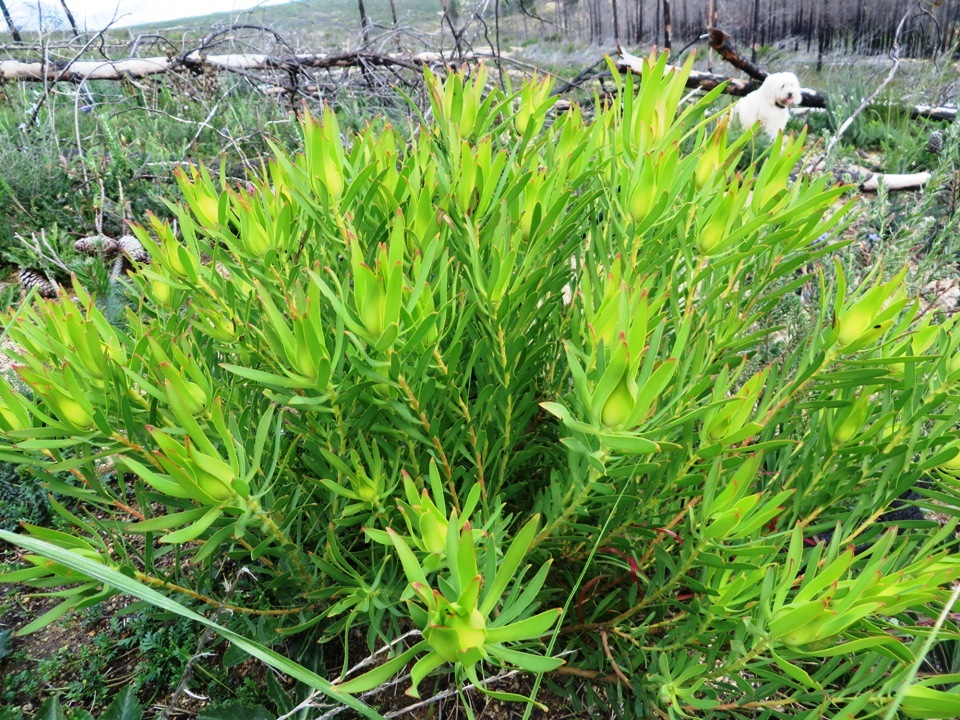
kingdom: Plantae
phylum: Tracheophyta
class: Magnoliopsida
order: Proteales
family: Proteaceae
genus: Leucadendron
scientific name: Leucadendron salignum
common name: Common sunshine conebush
